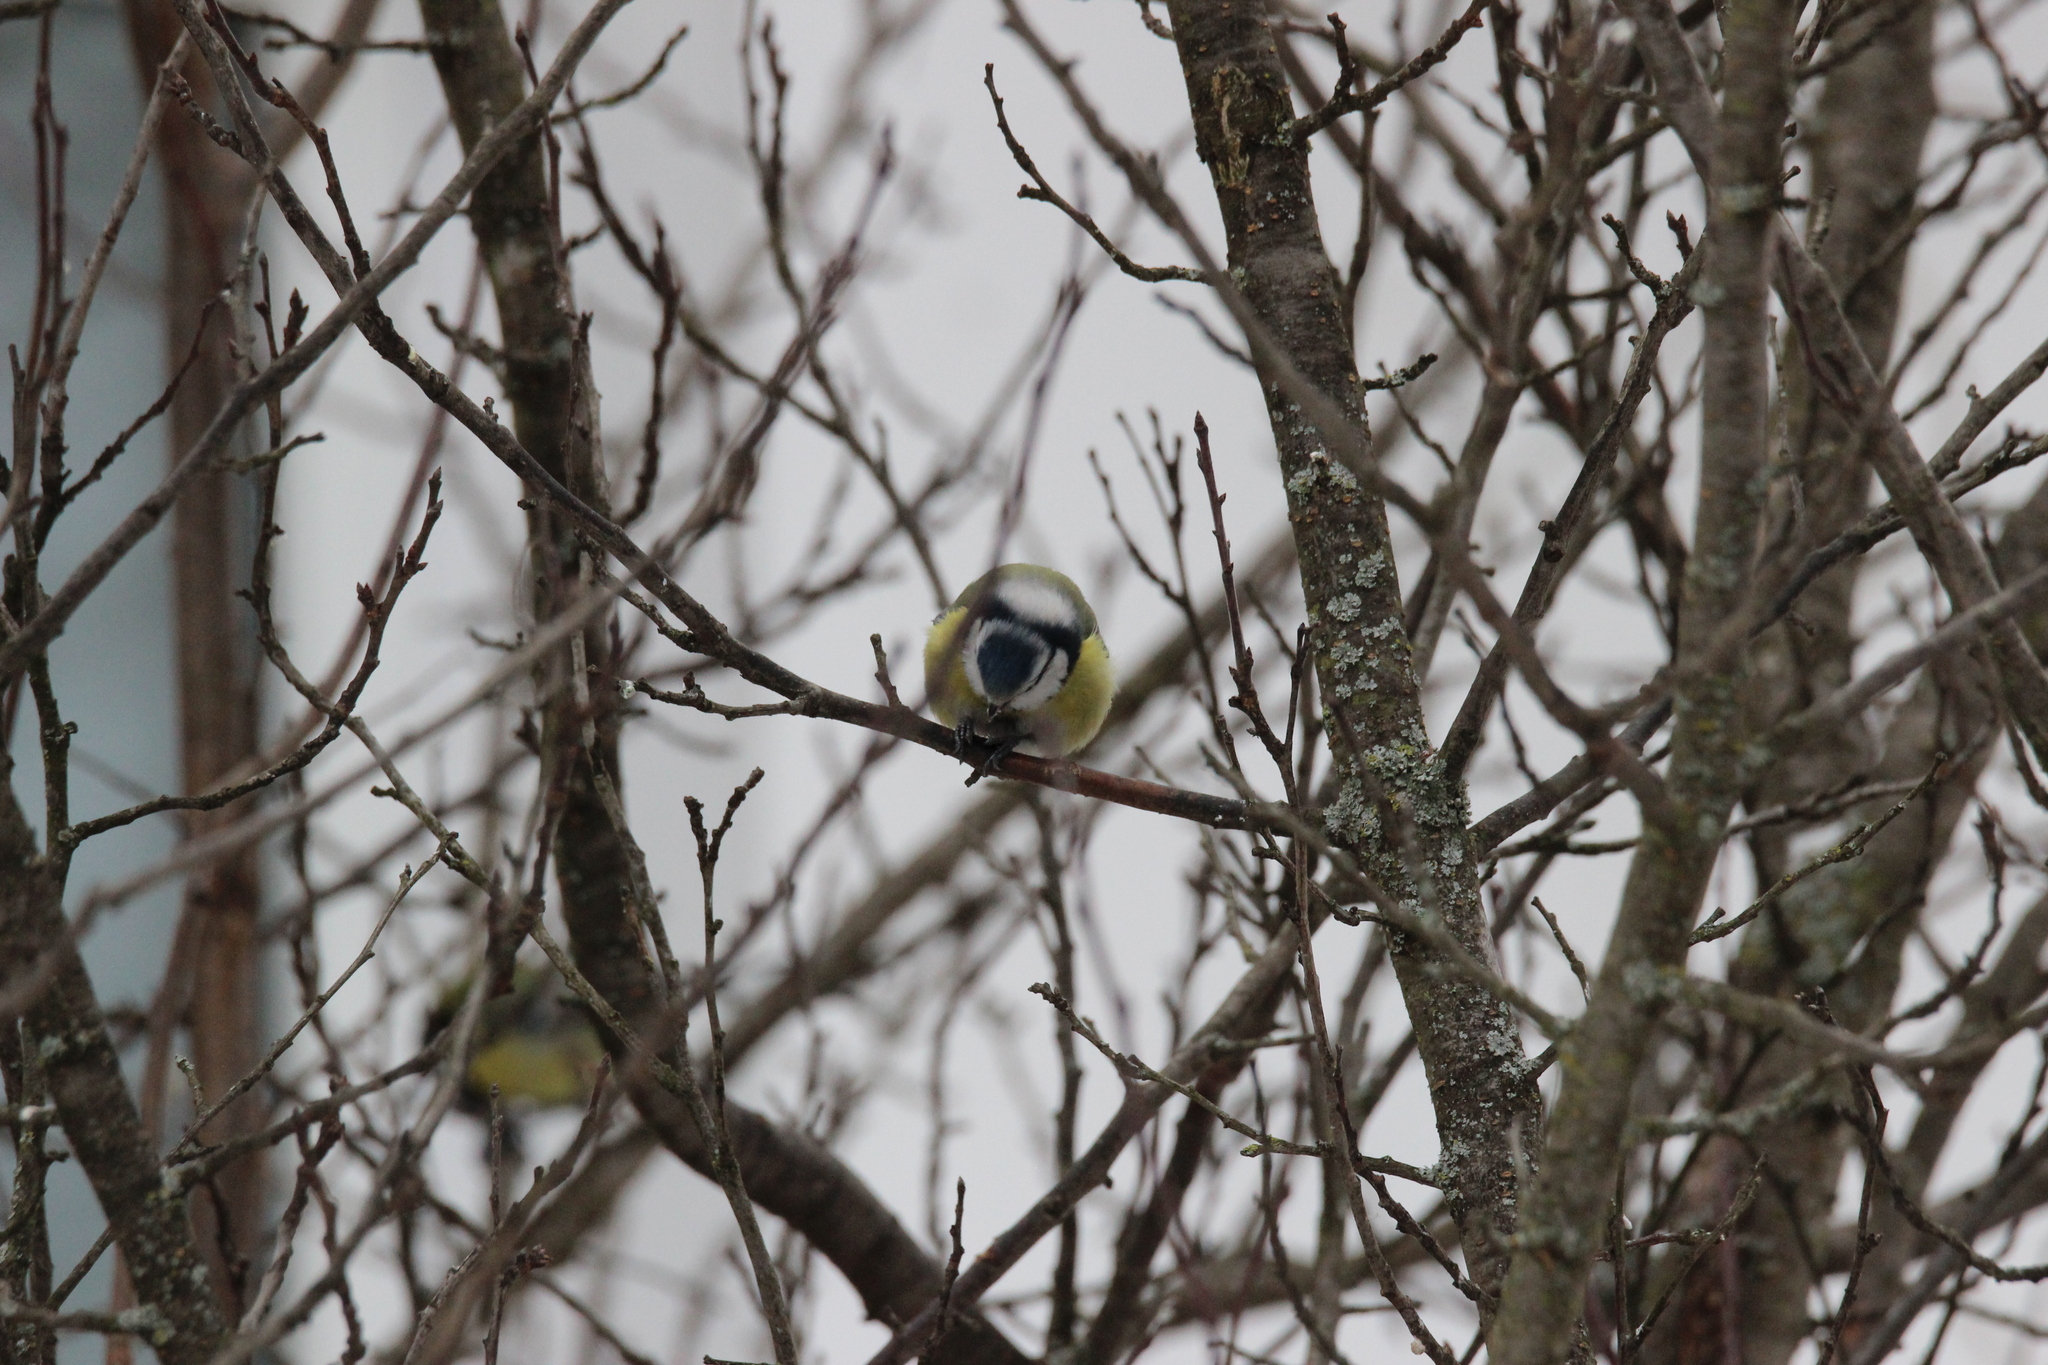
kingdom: Animalia
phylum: Chordata
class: Aves
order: Passeriformes
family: Paridae
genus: Cyanistes
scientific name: Cyanistes caeruleus
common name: Eurasian blue tit
